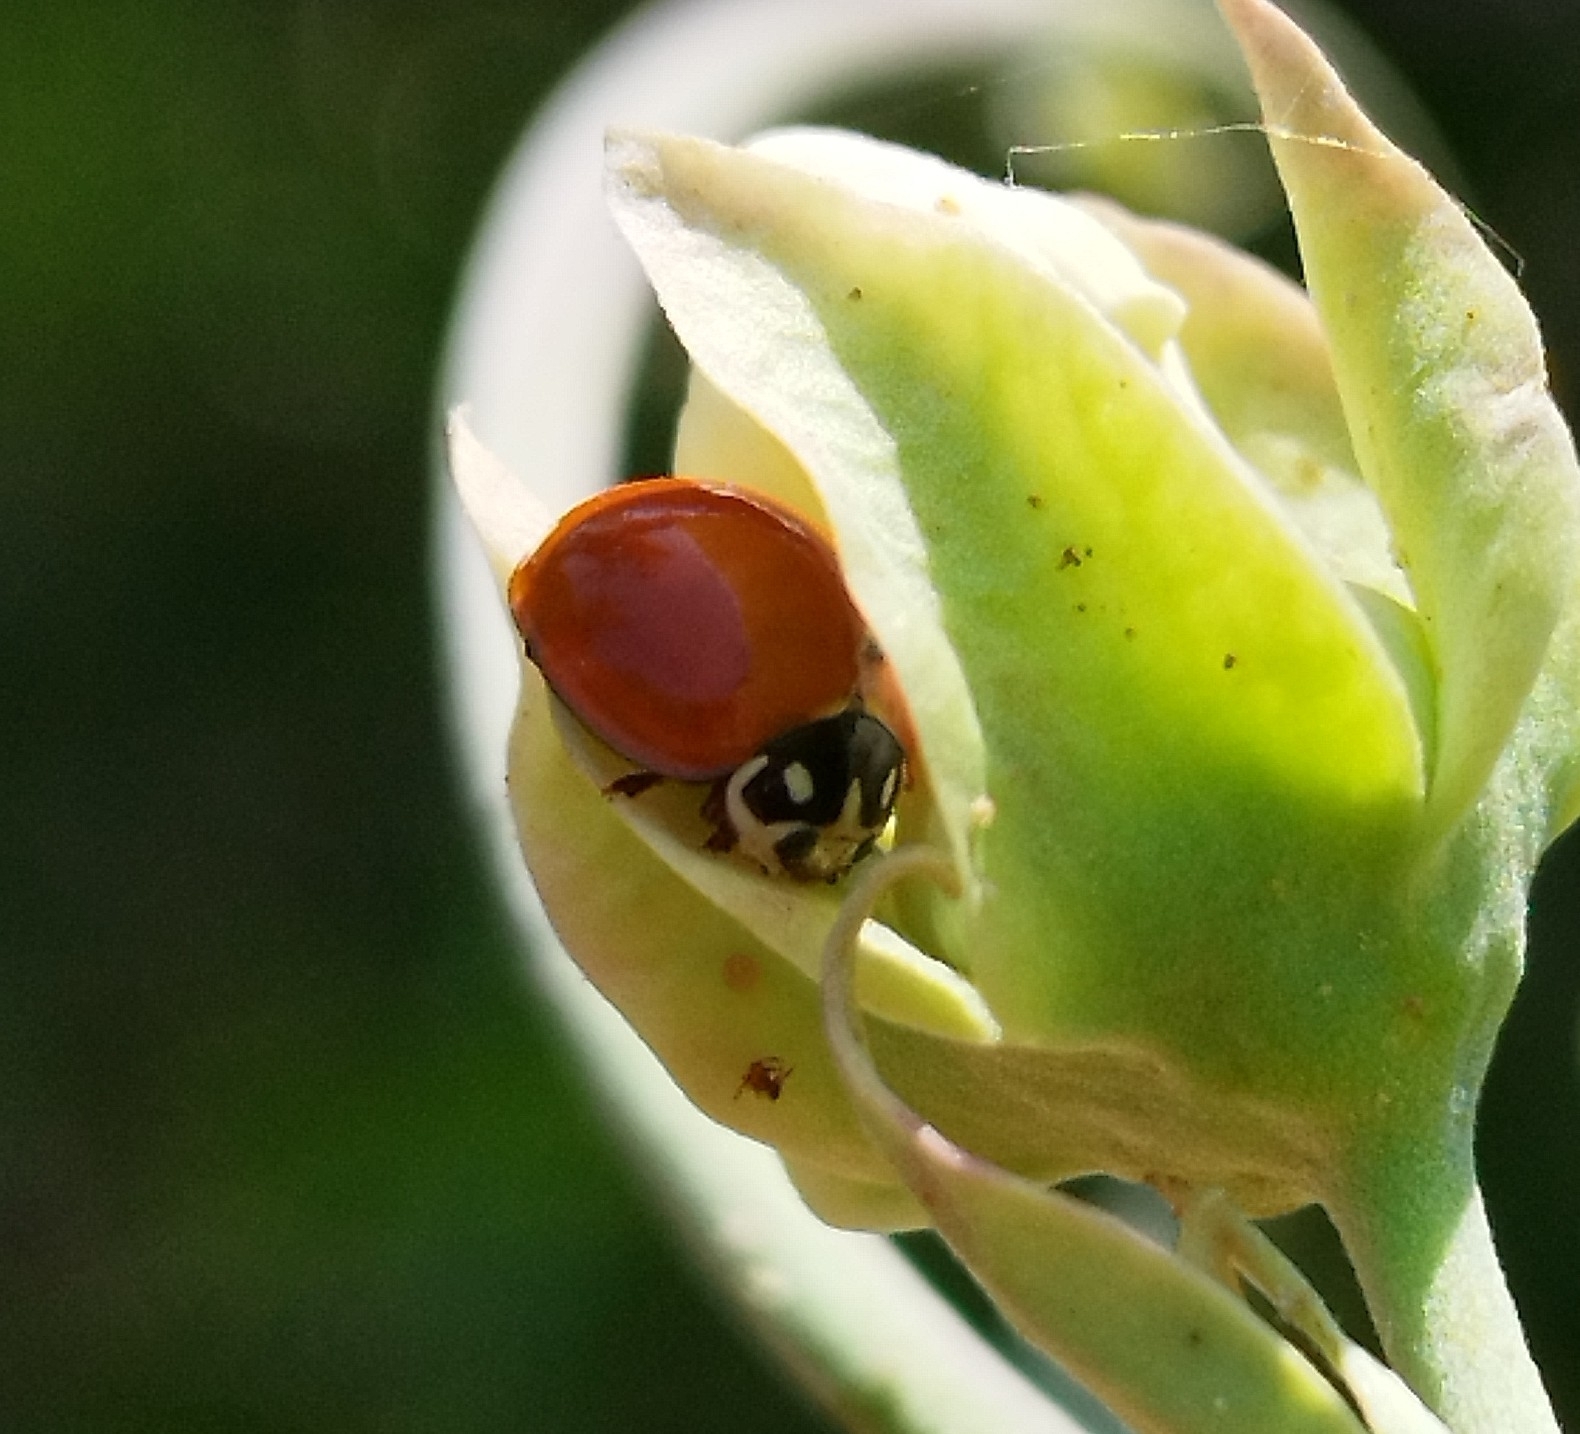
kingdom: Animalia
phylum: Arthropoda
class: Insecta
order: Coleoptera
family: Coccinellidae
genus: Cycloneda
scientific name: Cycloneda sanguinea
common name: Ladybird beetle
